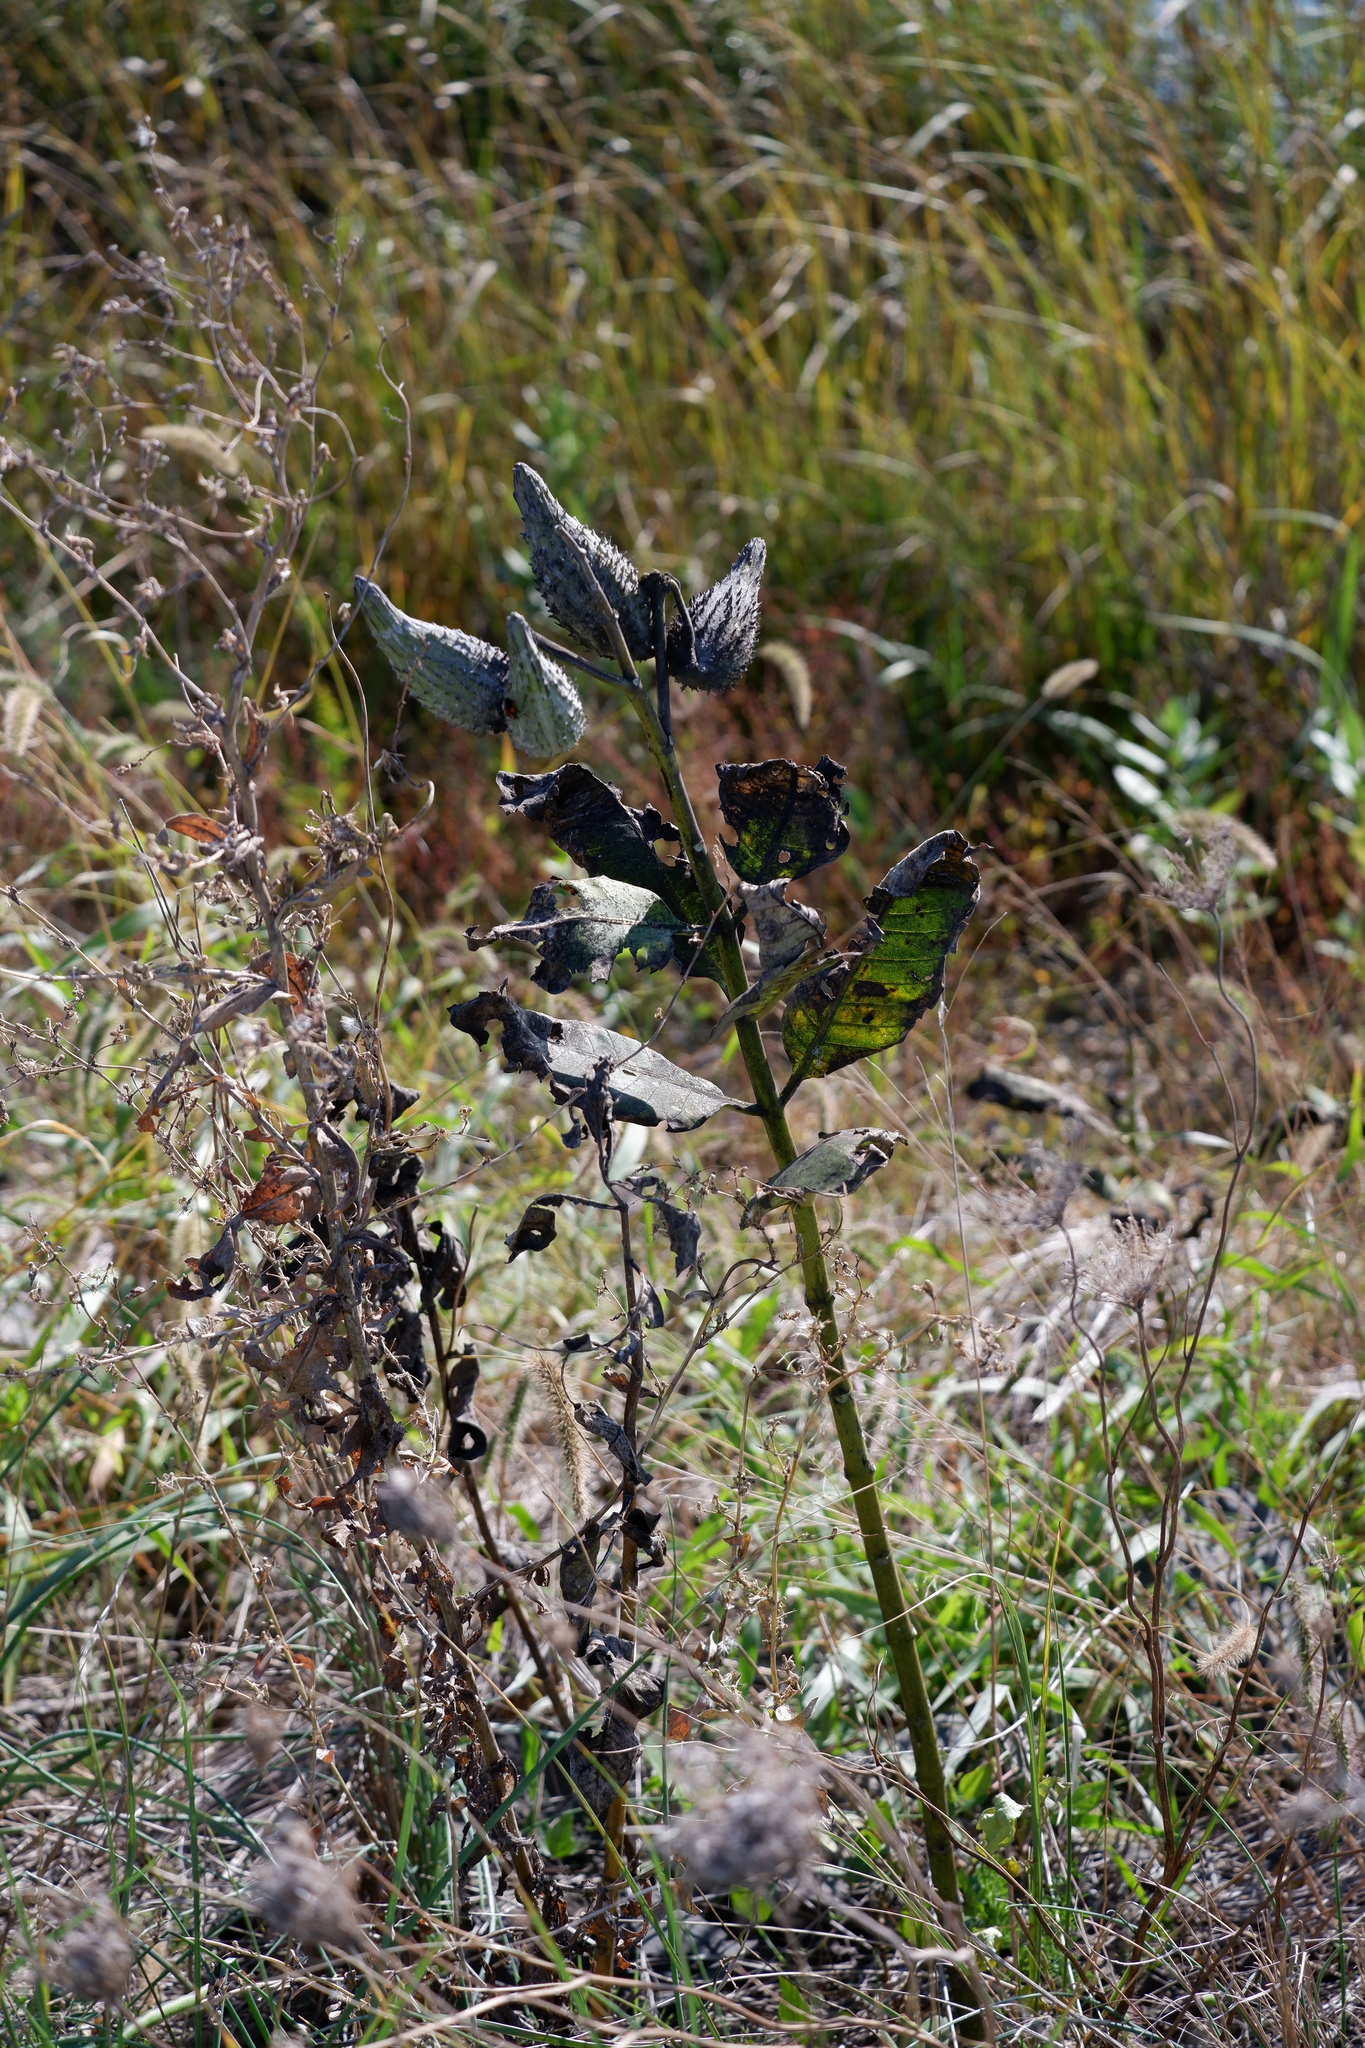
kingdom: Plantae
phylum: Tracheophyta
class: Magnoliopsida
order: Gentianales
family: Apocynaceae
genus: Asclepias
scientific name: Asclepias syriaca
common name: Common milkweed
